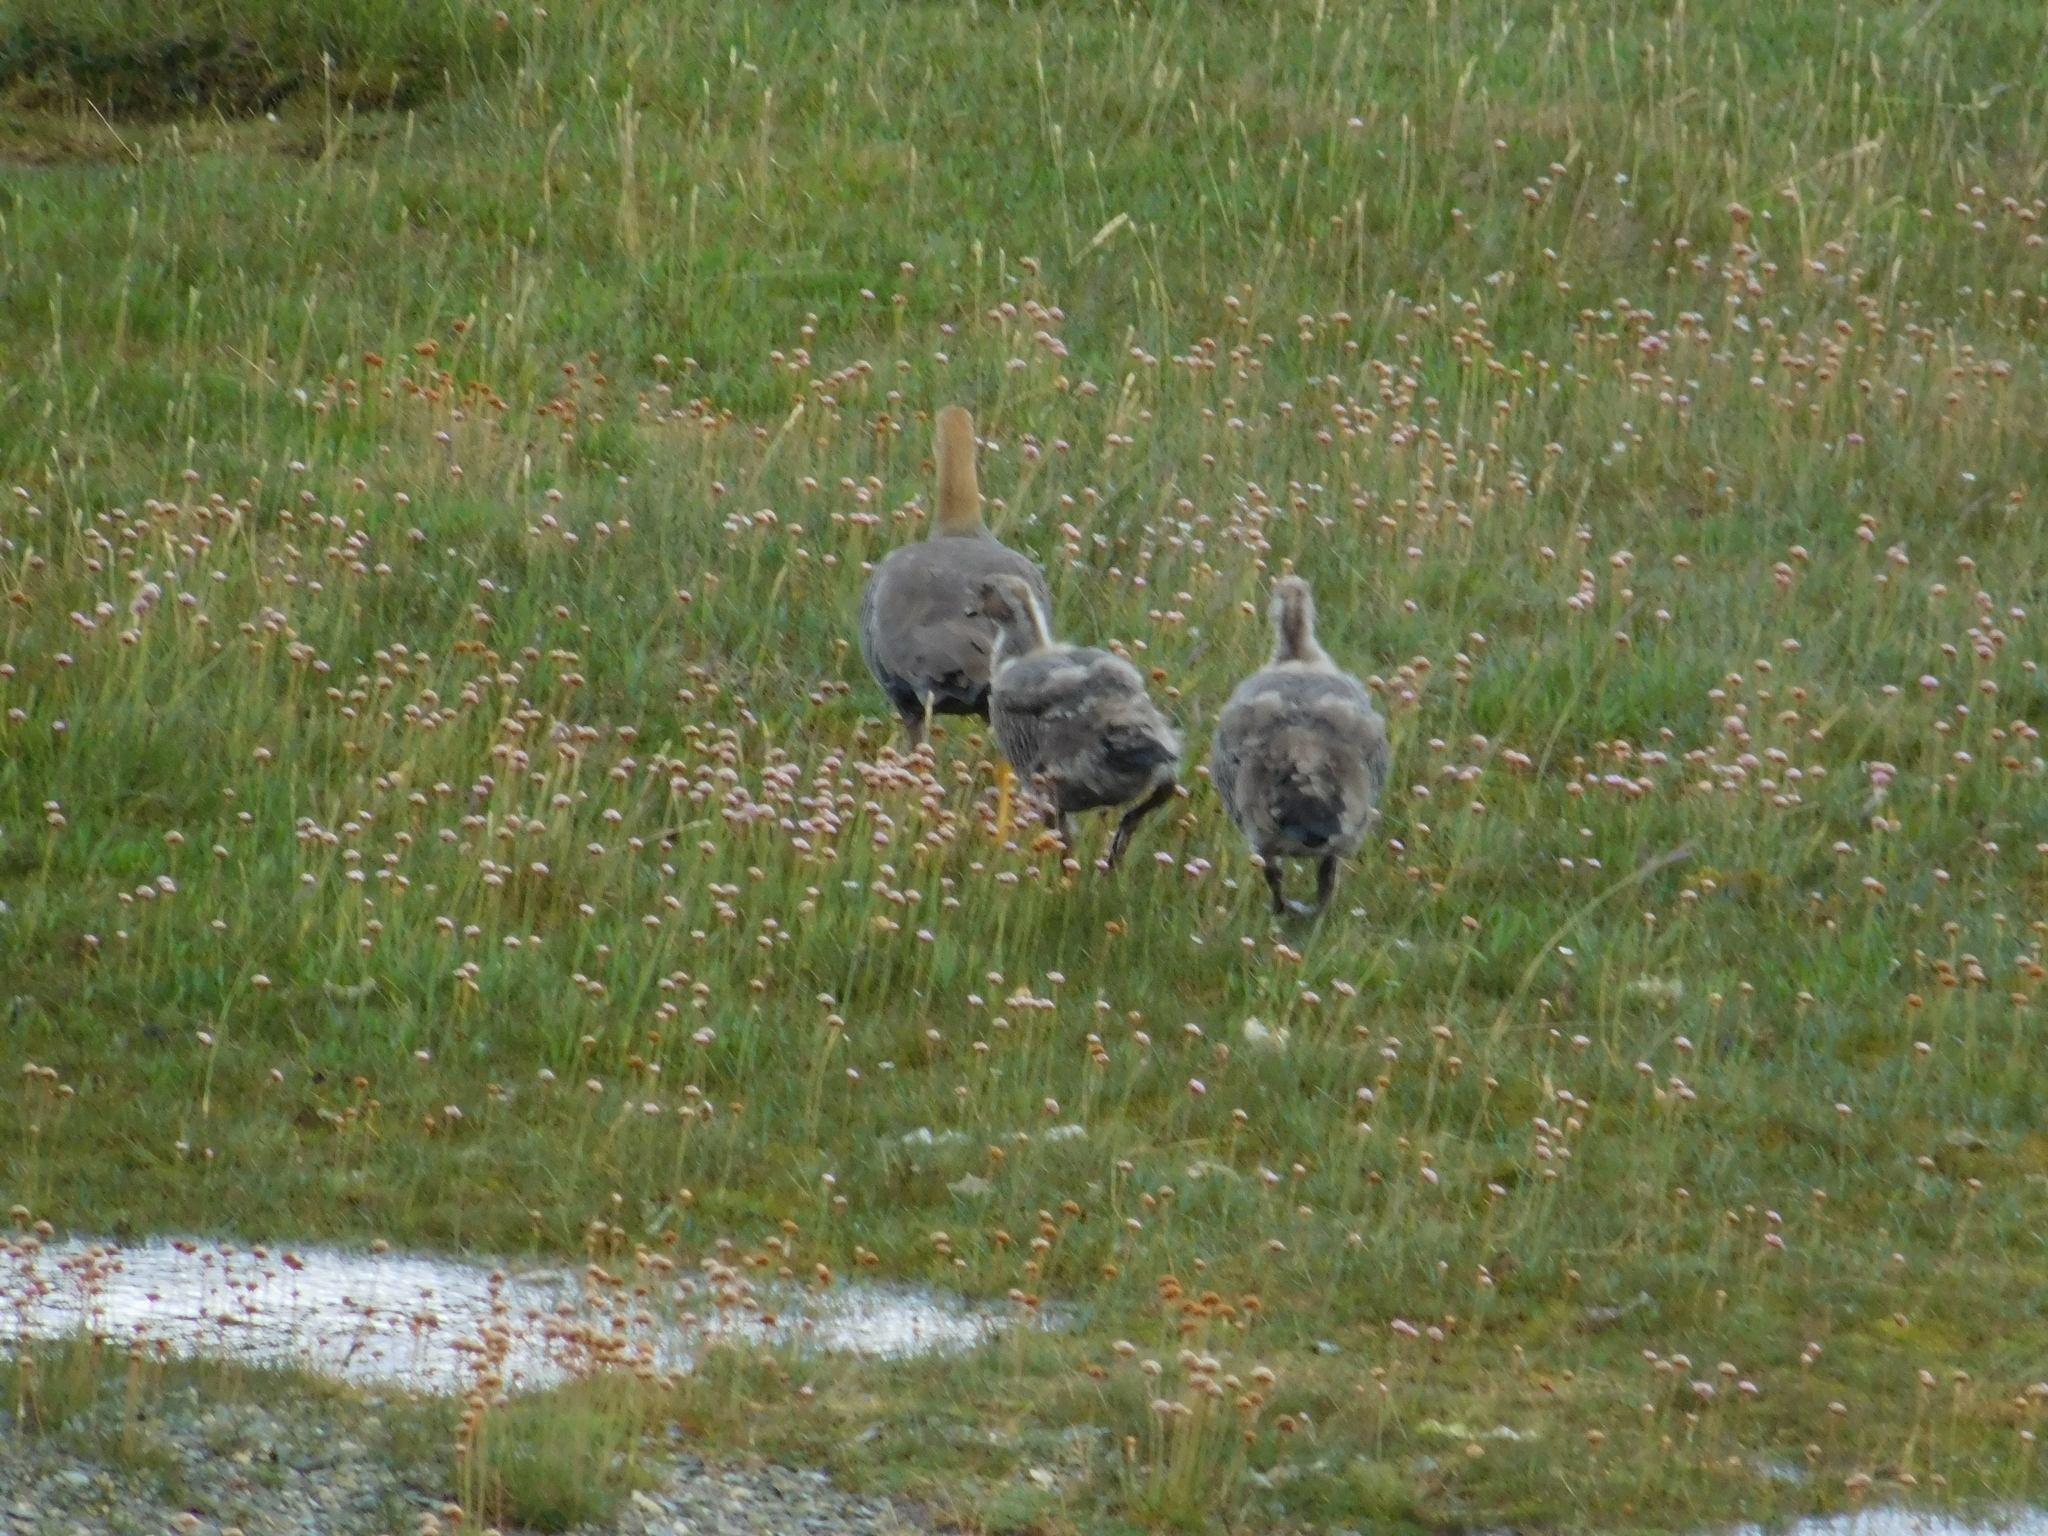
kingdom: Animalia
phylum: Chordata
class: Aves
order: Anseriformes
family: Anatidae
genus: Chloephaga
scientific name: Chloephaga picta
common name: Upland goose
